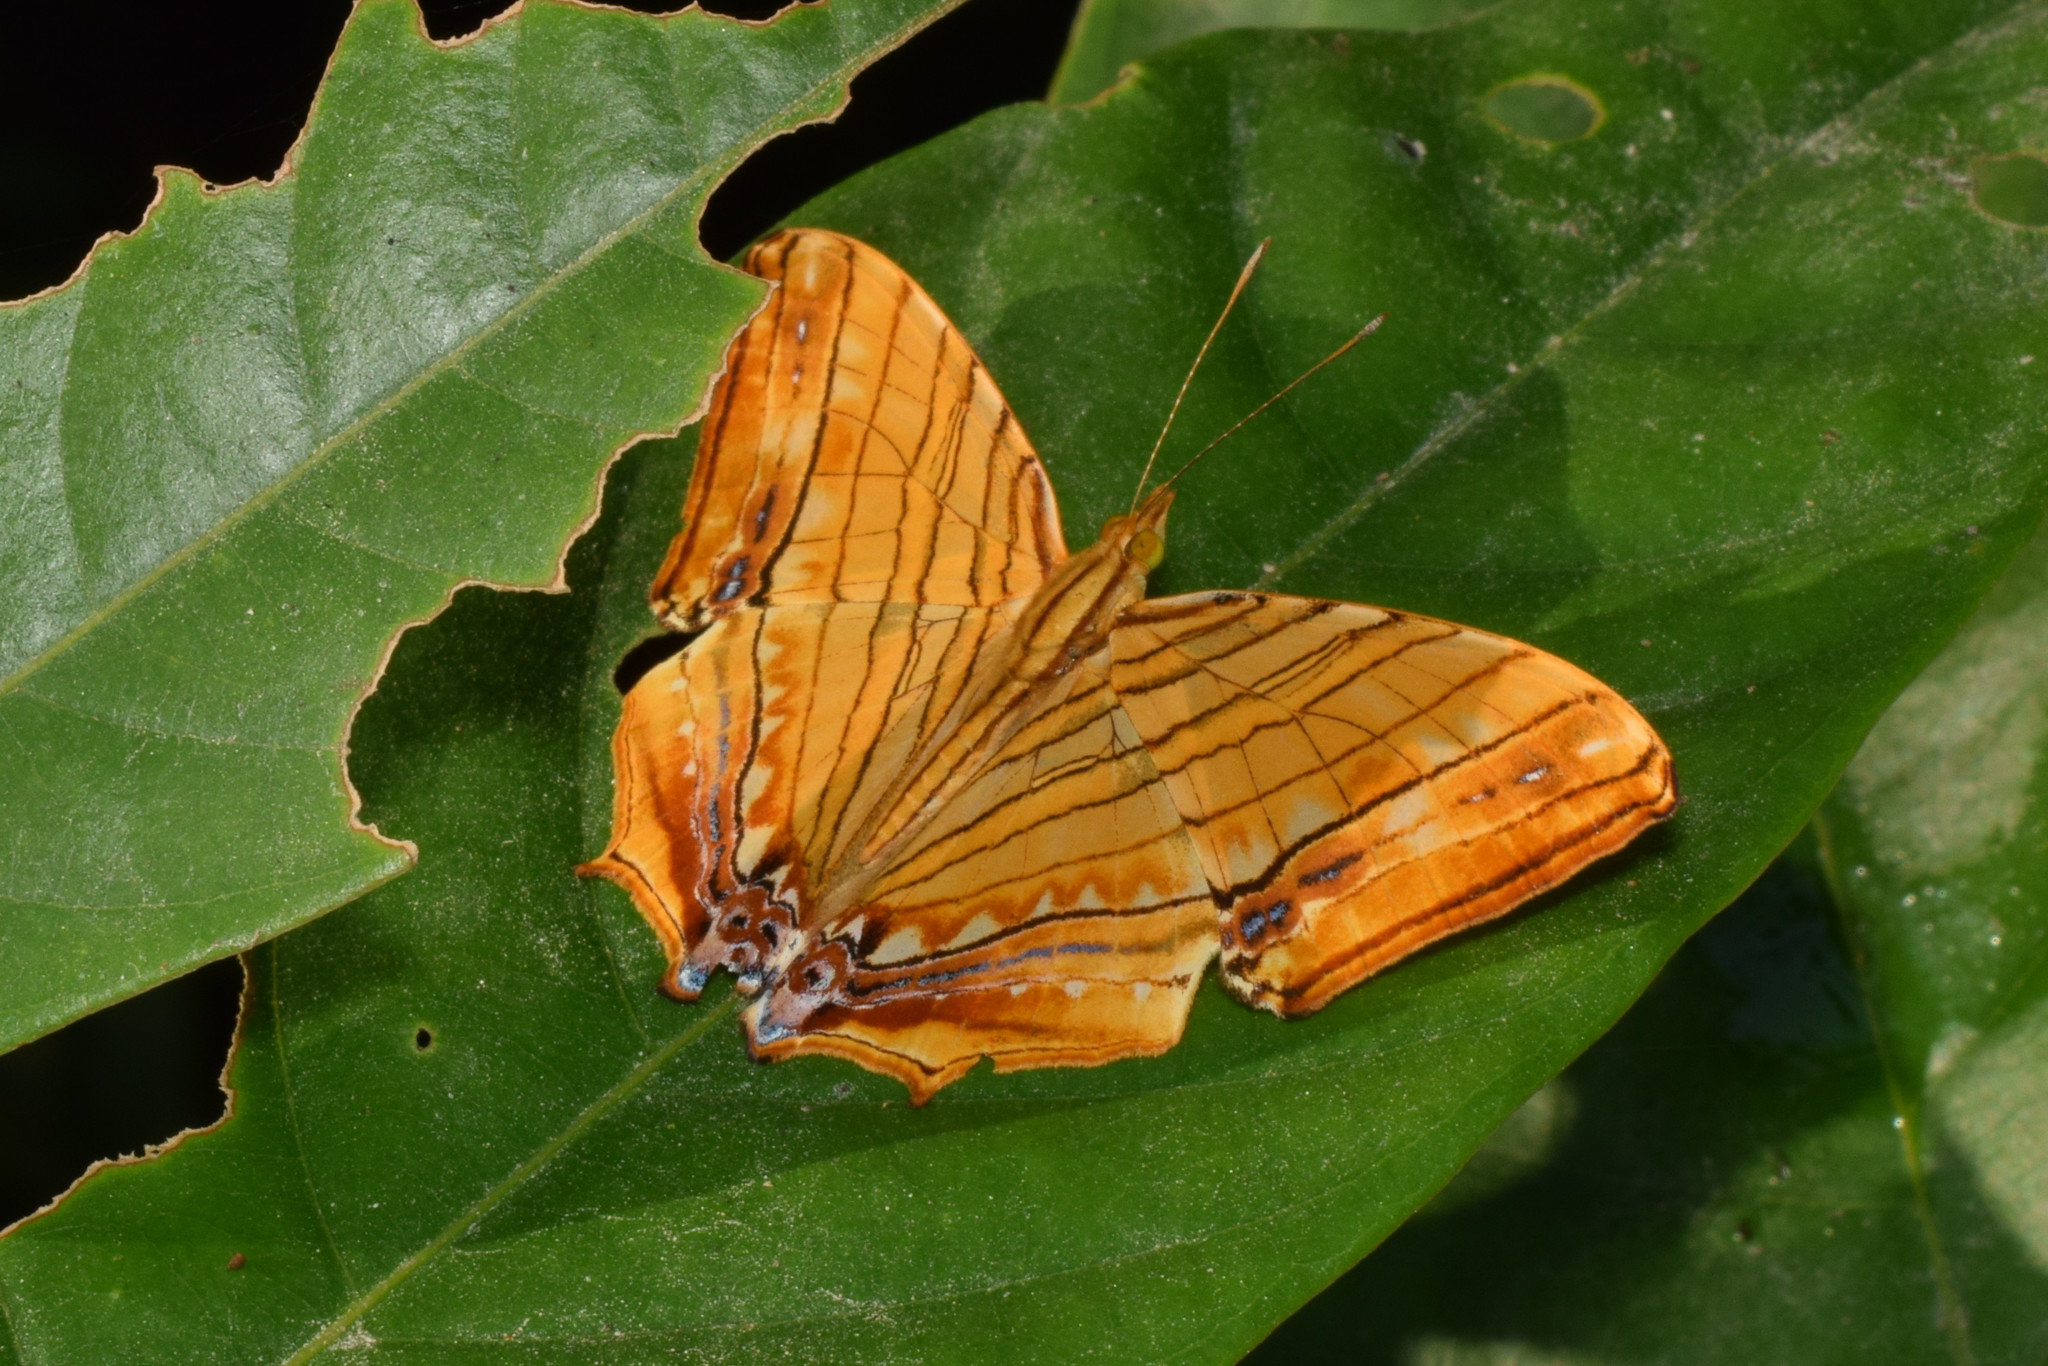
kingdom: Animalia
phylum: Arthropoda
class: Insecta
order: Lepidoptera
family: Nymphalidae
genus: Chersonesia
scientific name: Chersonesia risa
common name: Common maplet
